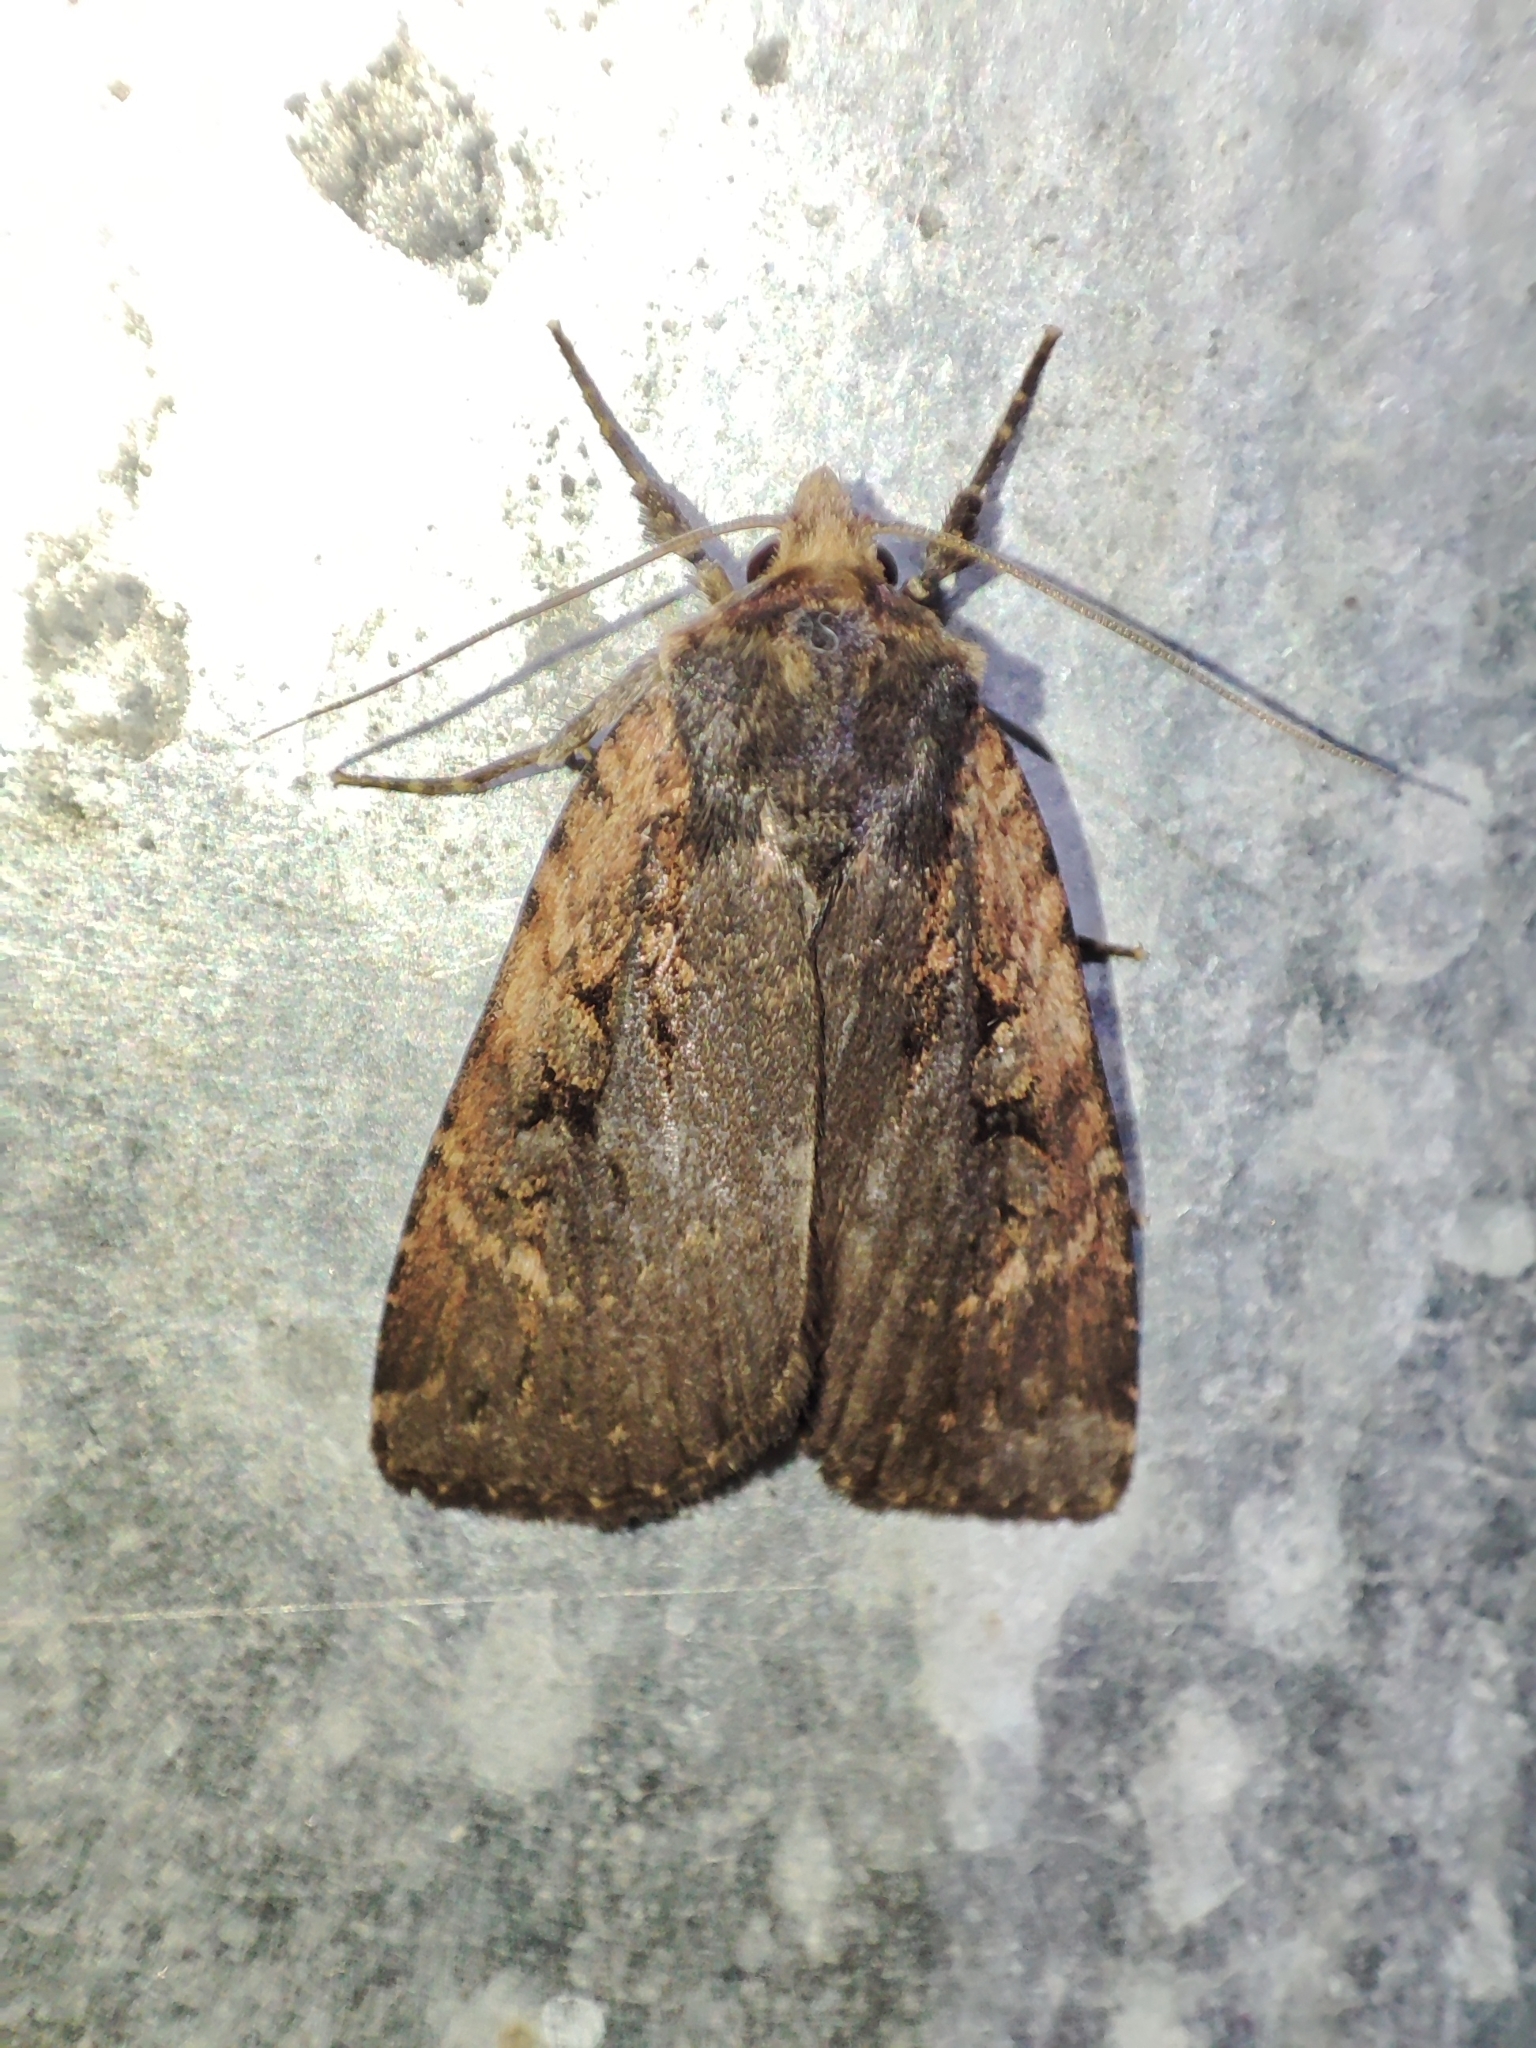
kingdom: Animalia
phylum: Arthropoda
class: Insecta
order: Lepidoptera
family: Noctuidae
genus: Eugraphe
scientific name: Eugraphe sigma
